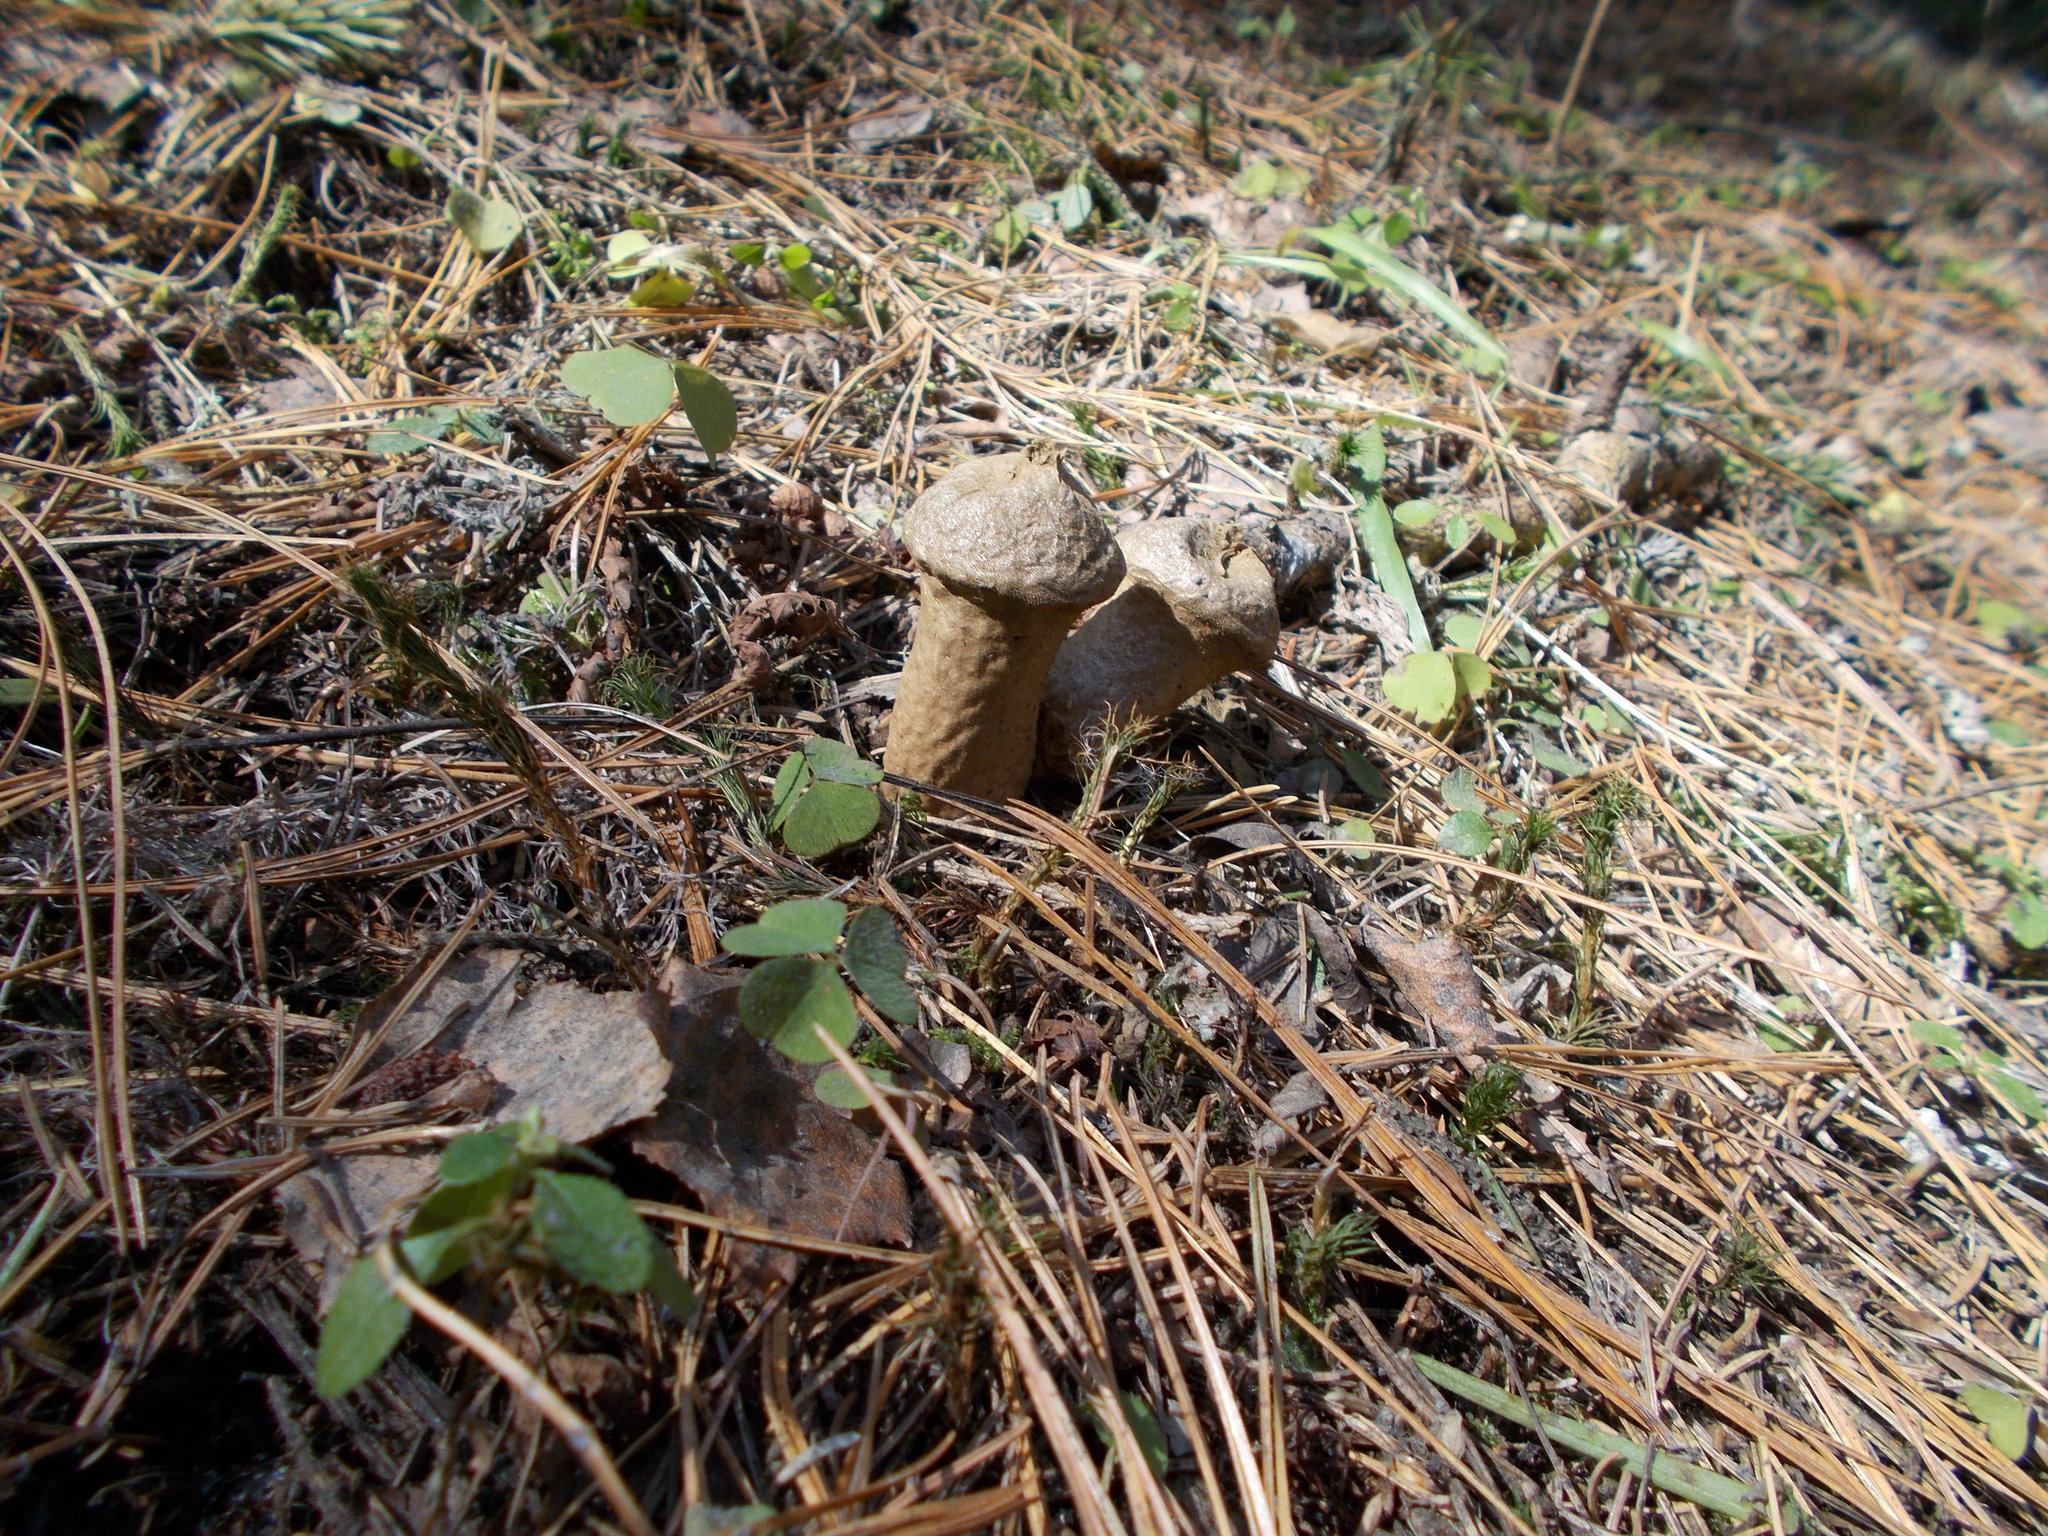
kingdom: Fungi
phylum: Basidiomycota
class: Agaricomycetes
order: Agaricales
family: Lycoperdaceae
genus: Lycoperdon
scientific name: Lycoperdon perlatum
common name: Common puffball
